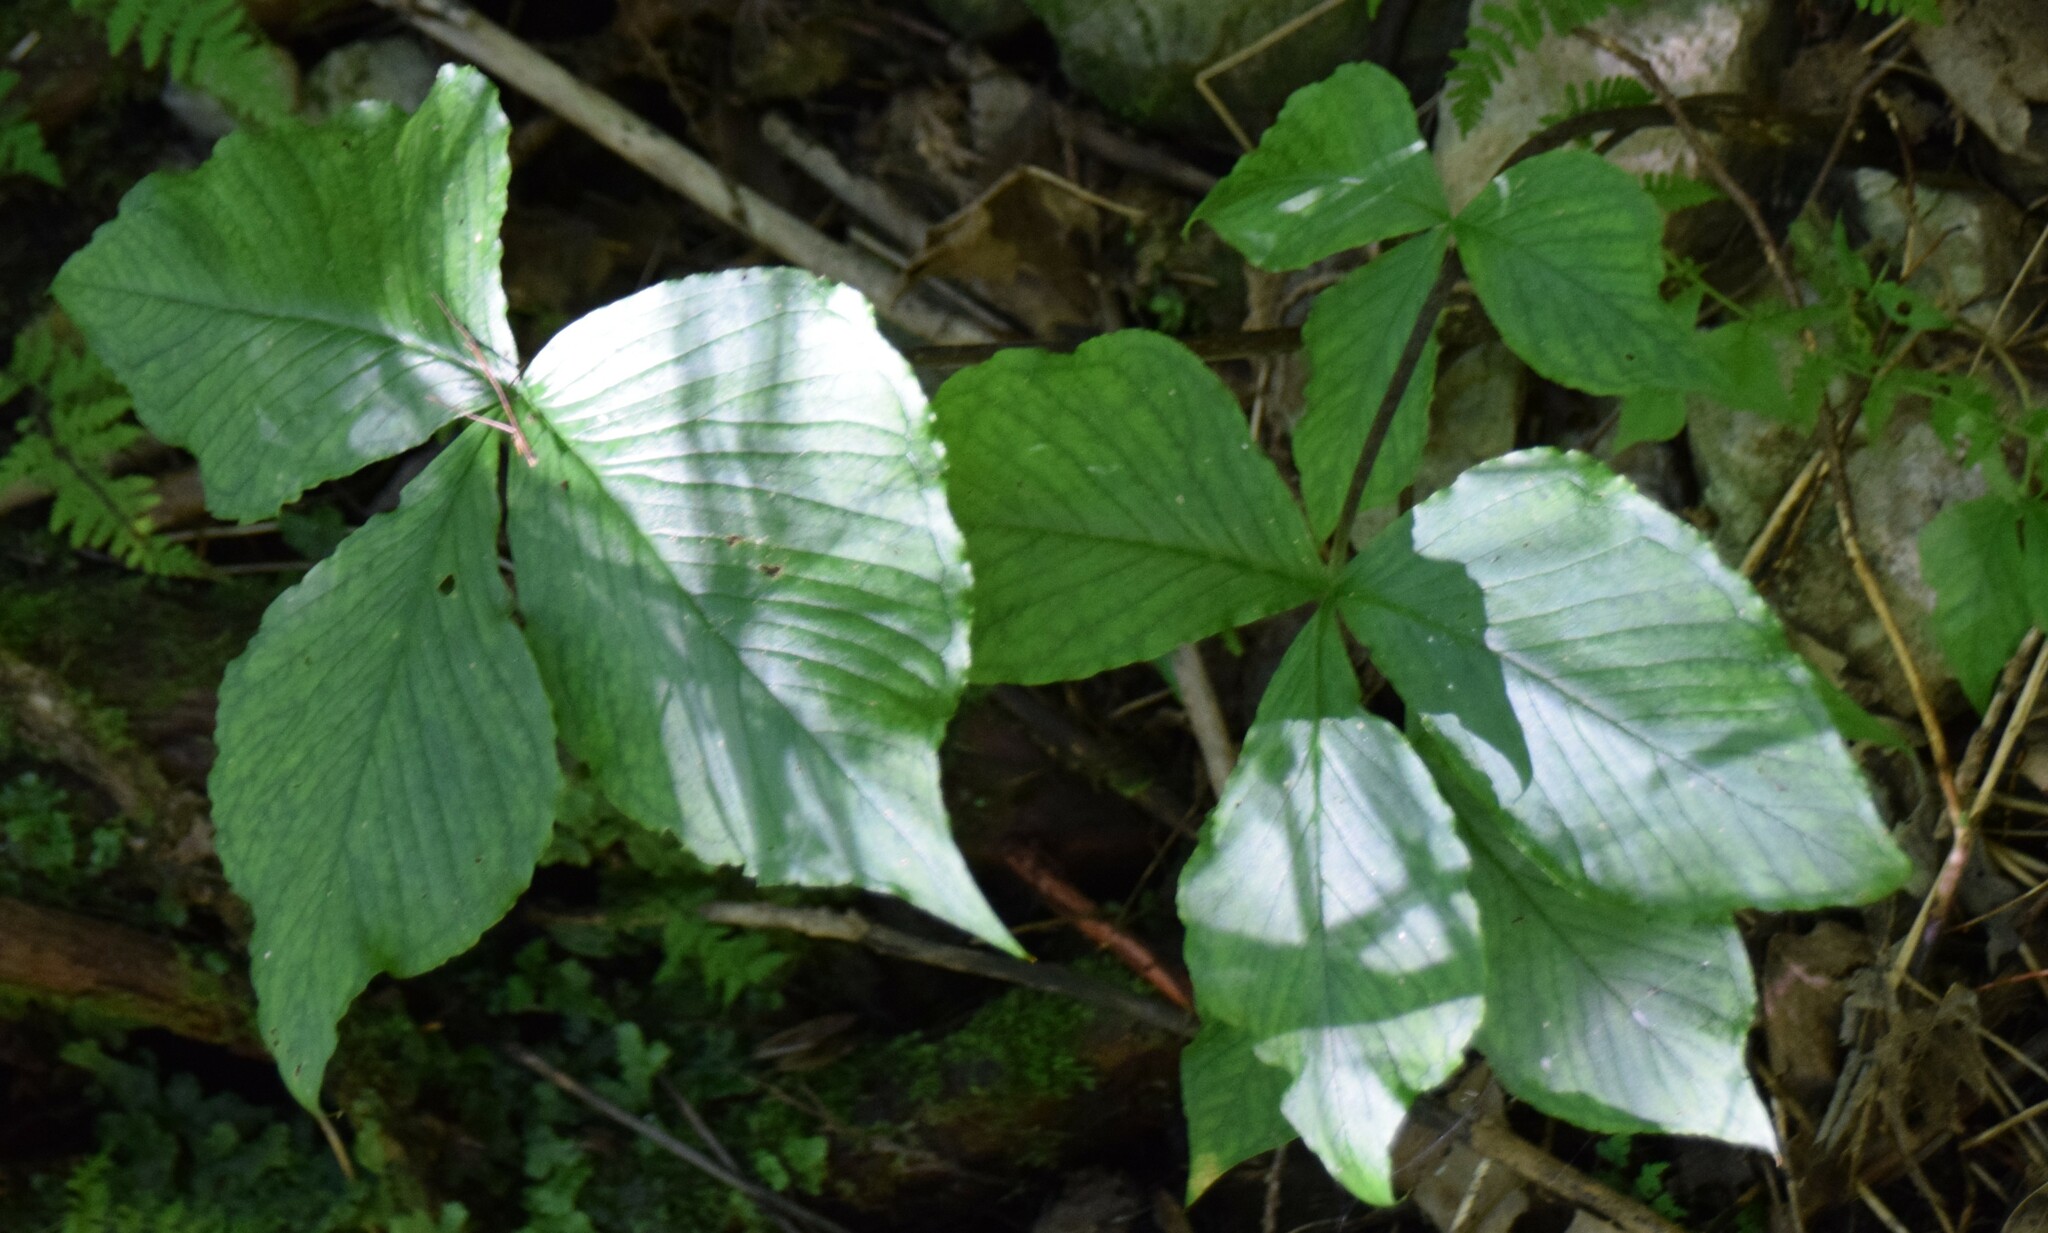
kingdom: Plantae
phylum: Tracheophyta
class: Liliopsida
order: Alismatales
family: Araceae
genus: Arisaema
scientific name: Arisaema triphyllum
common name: Jack-in-the-pulpit
